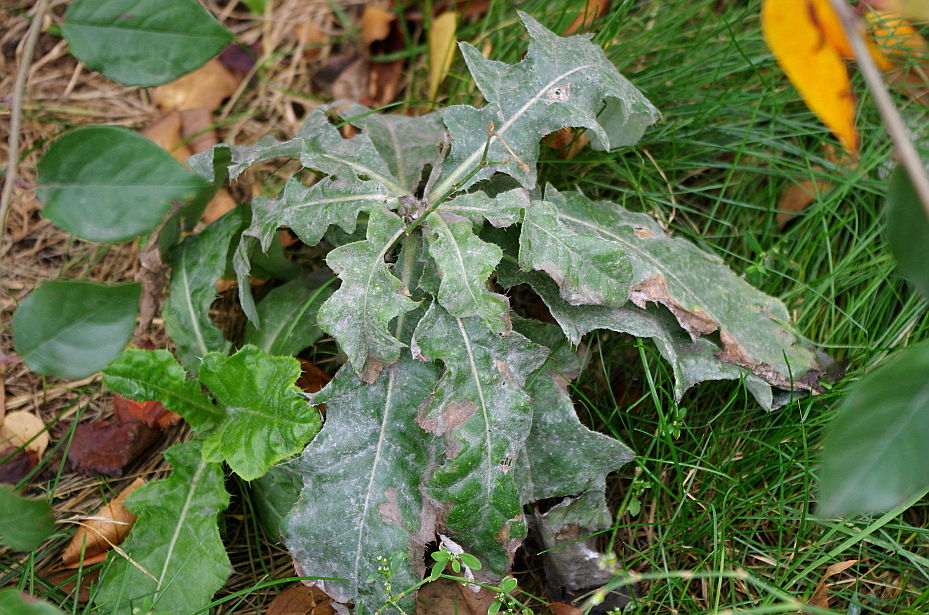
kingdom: Plantae
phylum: Tracheophyta
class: Magnoliopsida
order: Asterales
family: Asteraceae
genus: Cirsium
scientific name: Cirsium arvense
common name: Creeping thistle
